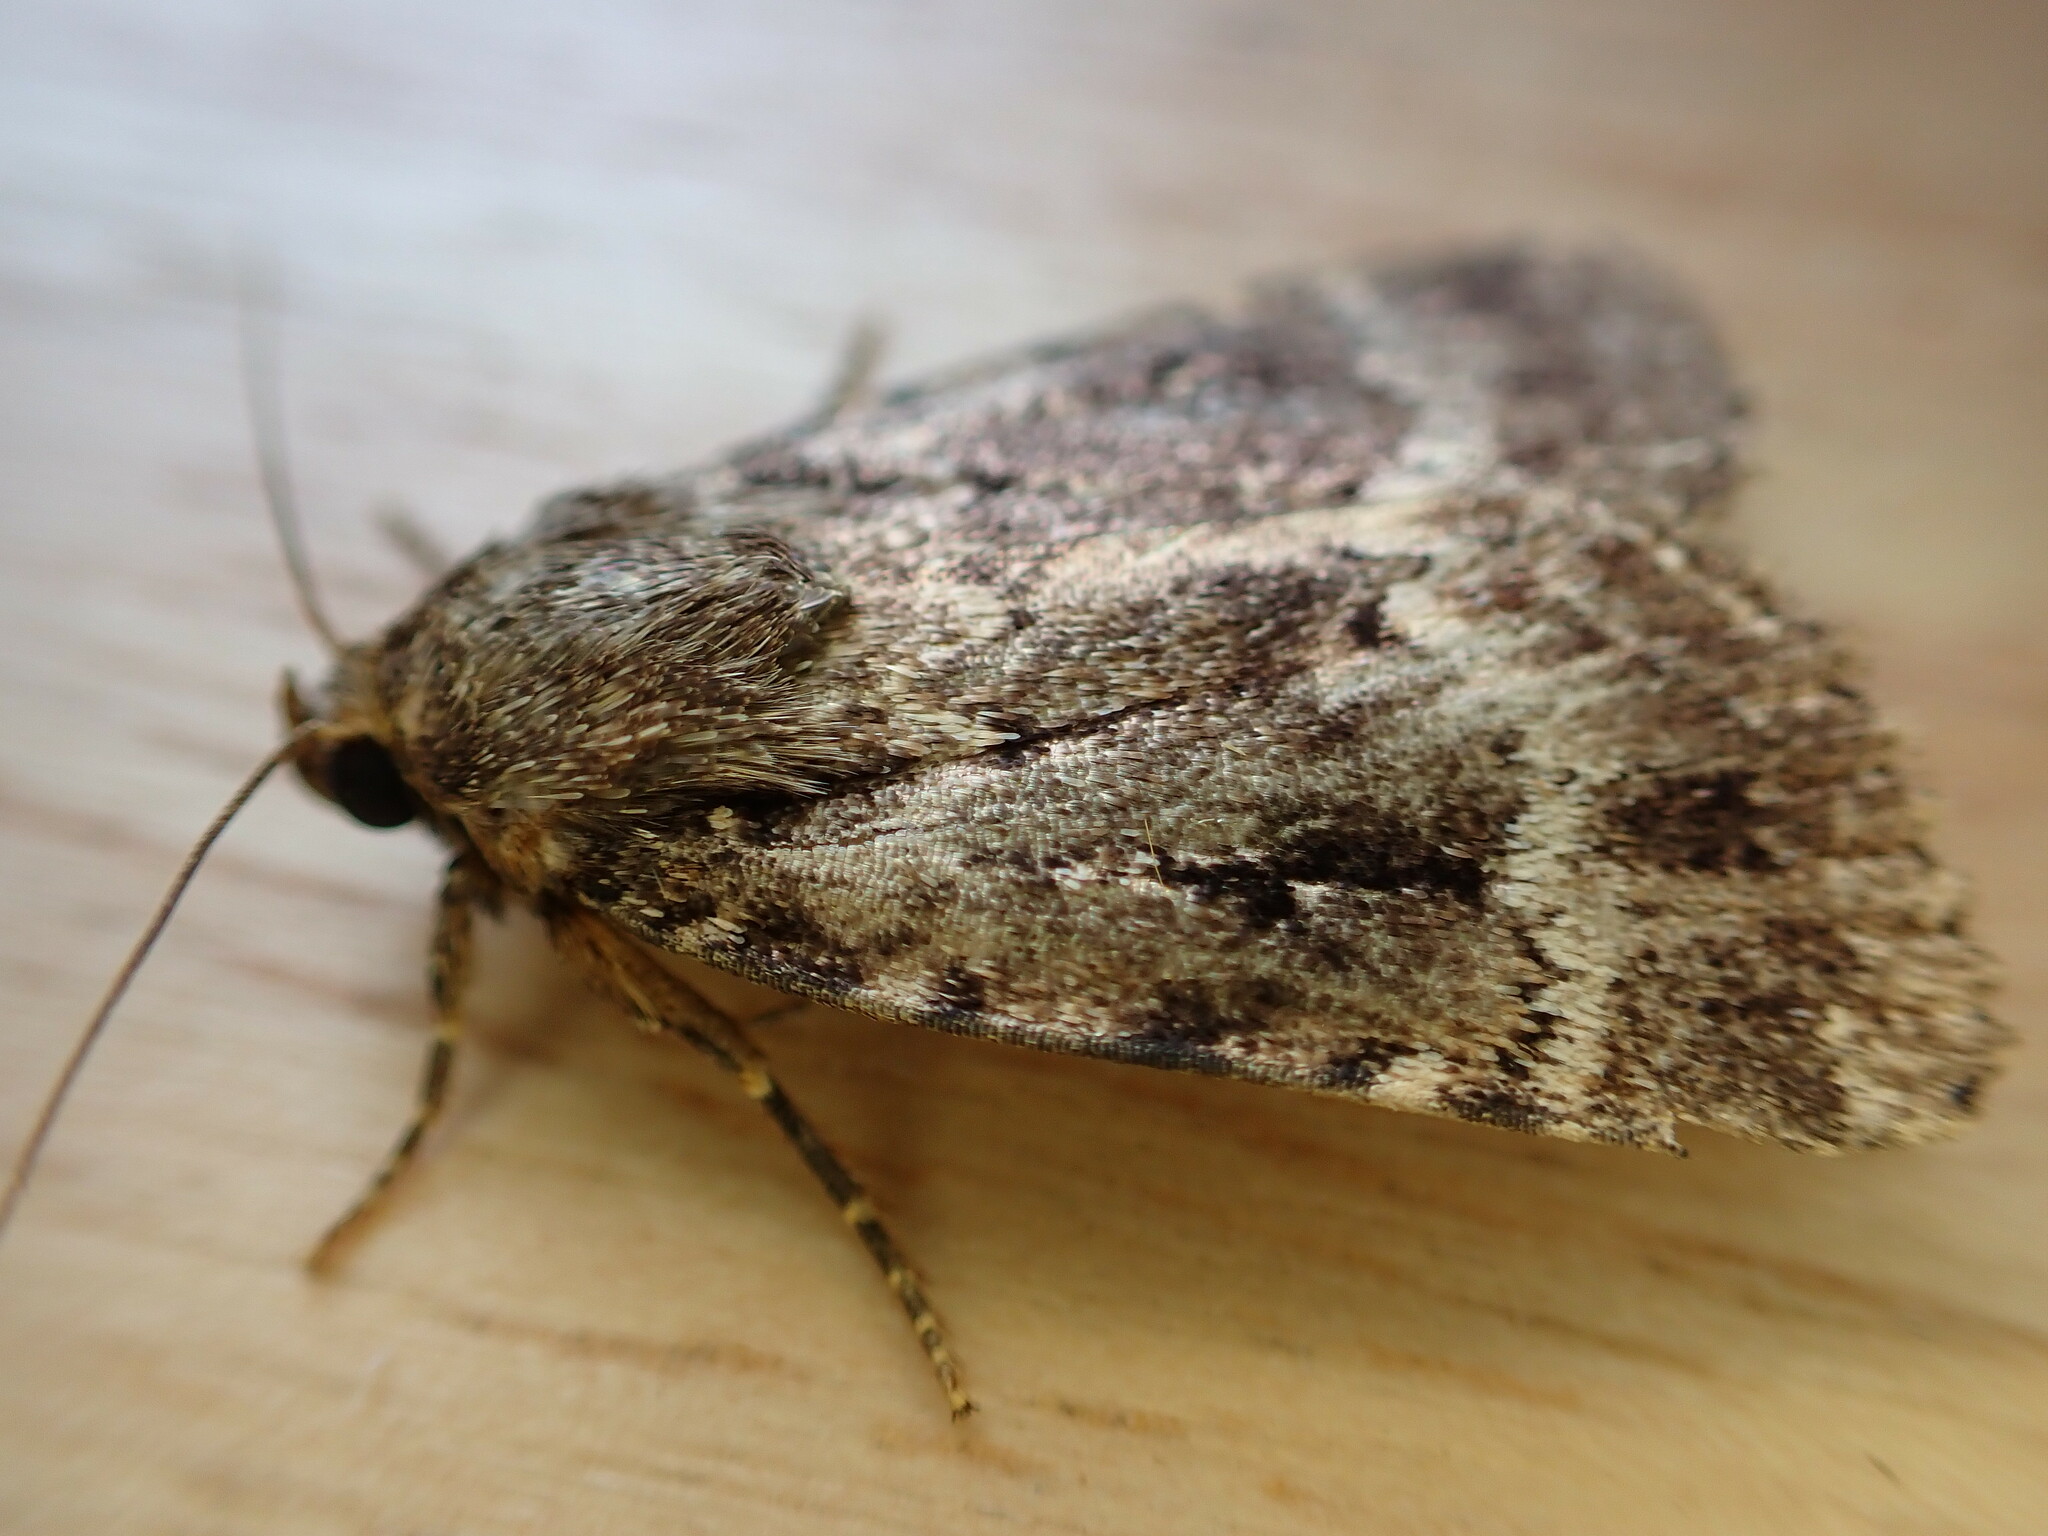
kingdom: Animalia
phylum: Arthropoda
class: Insecta
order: Lepidoptera
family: Noctuidae
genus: Amphipyra
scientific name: Amphipyra
